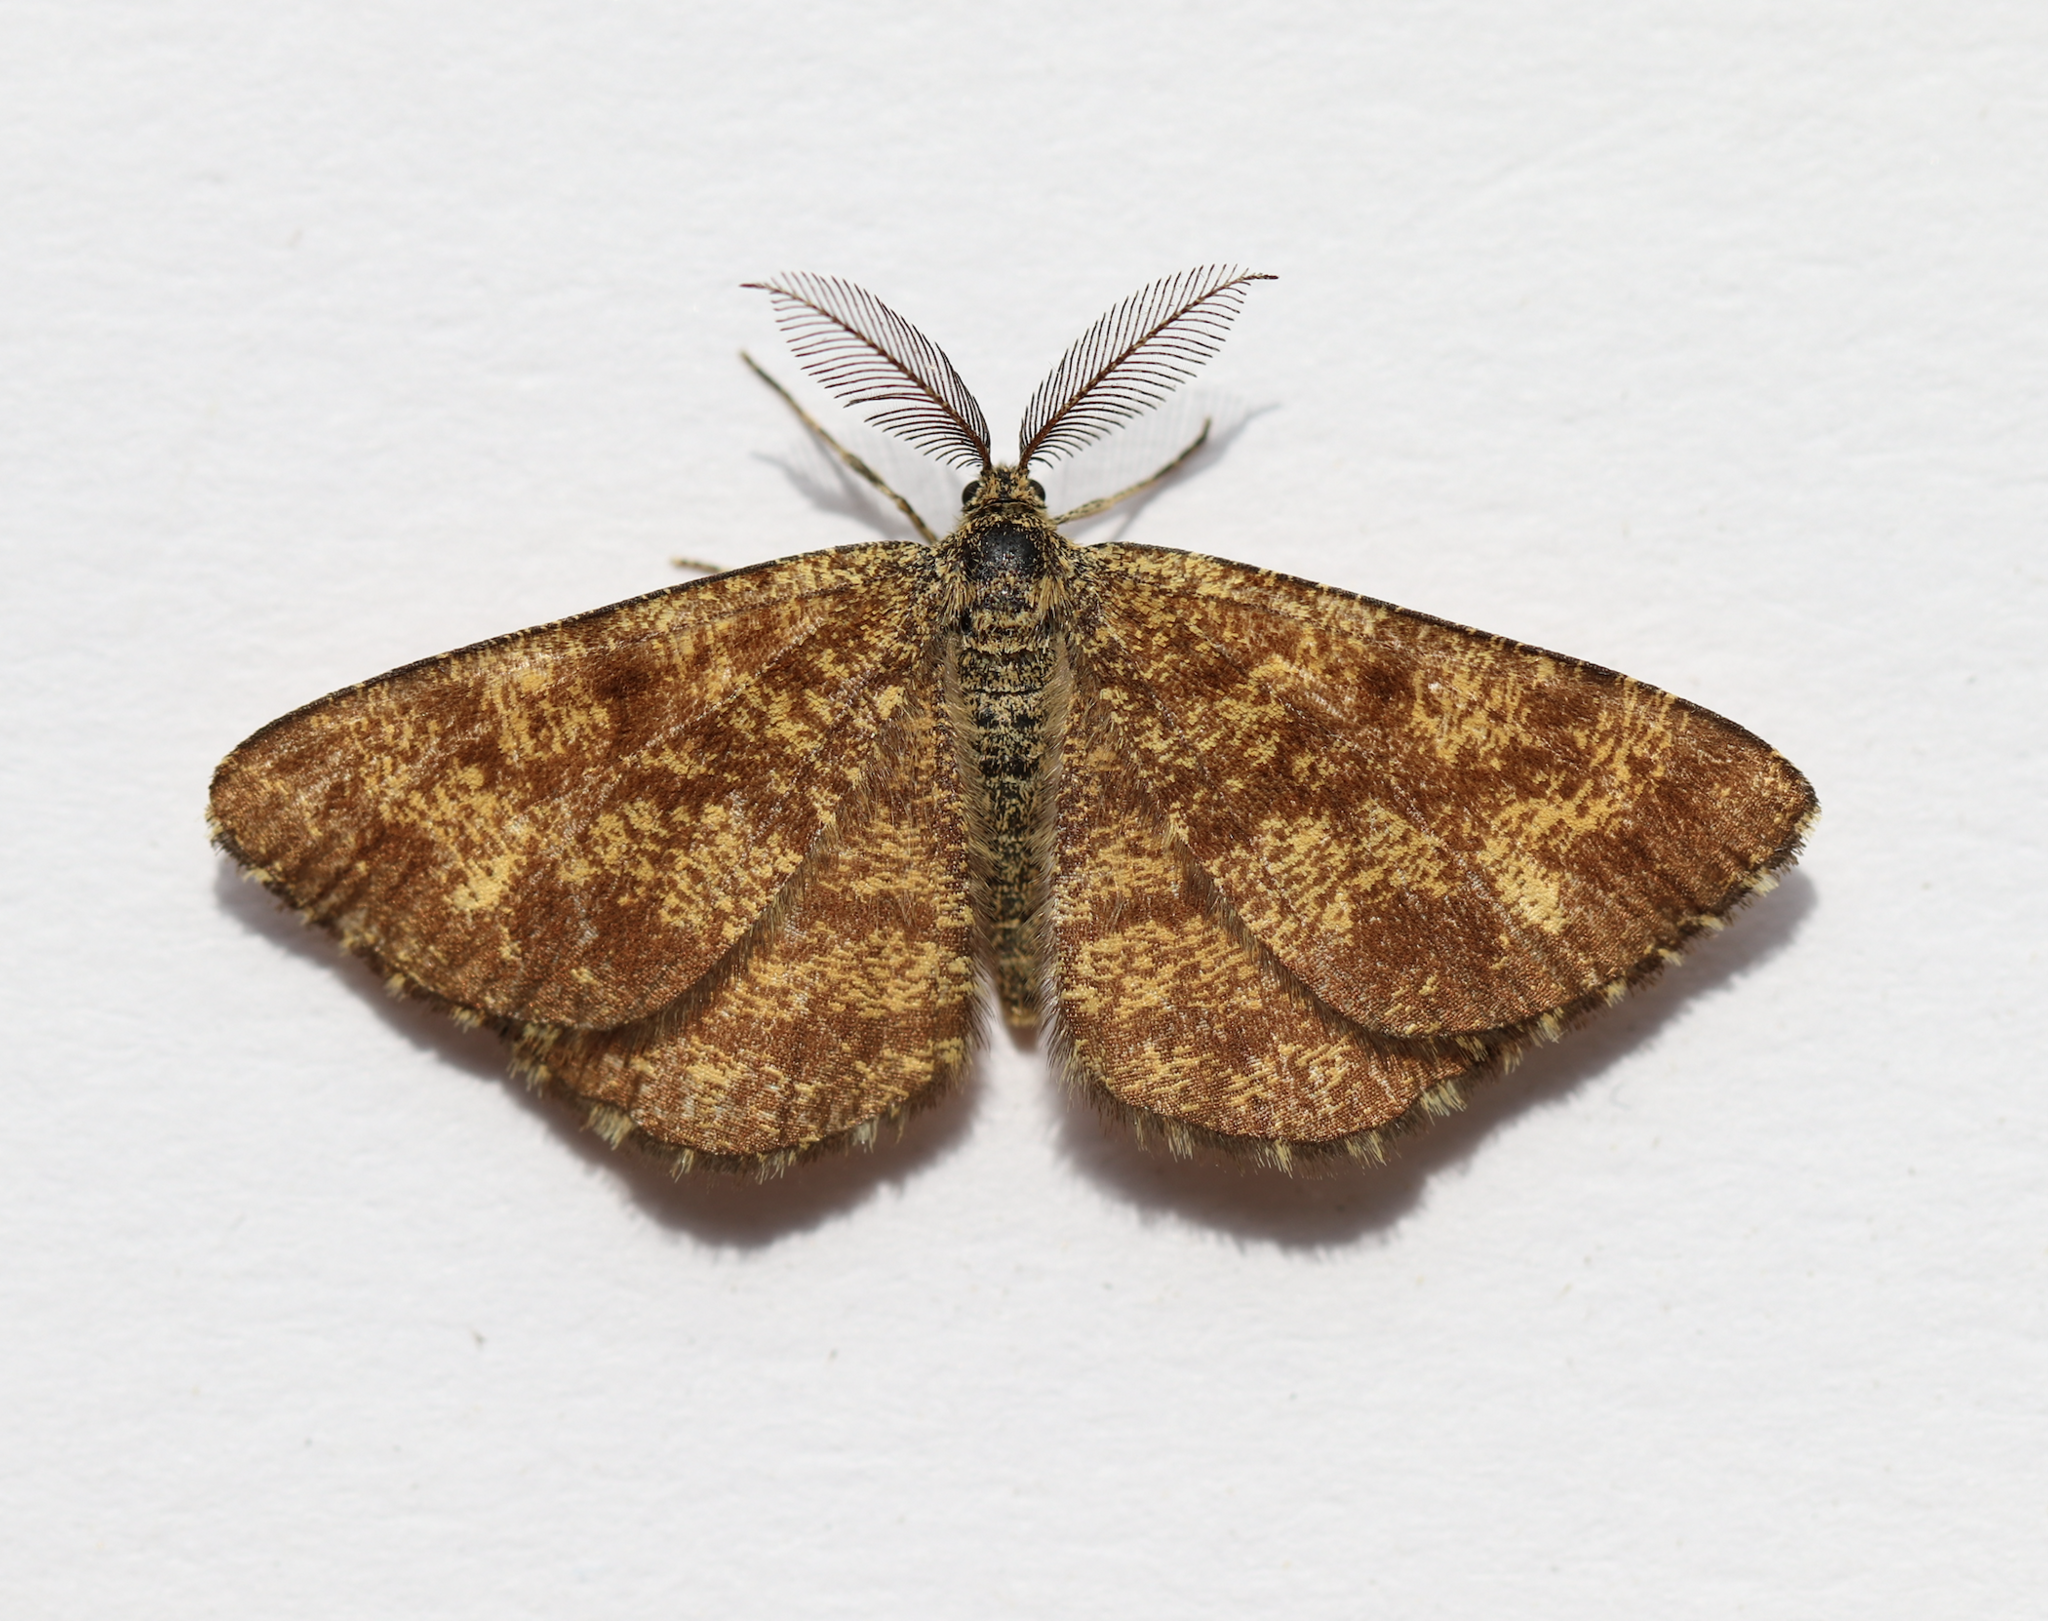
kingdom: Animalia
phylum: Arthropoda
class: Insecta
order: Lepidoptera
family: Geometridae
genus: Ematurga
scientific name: Ematurga atomaria
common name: Common heath
